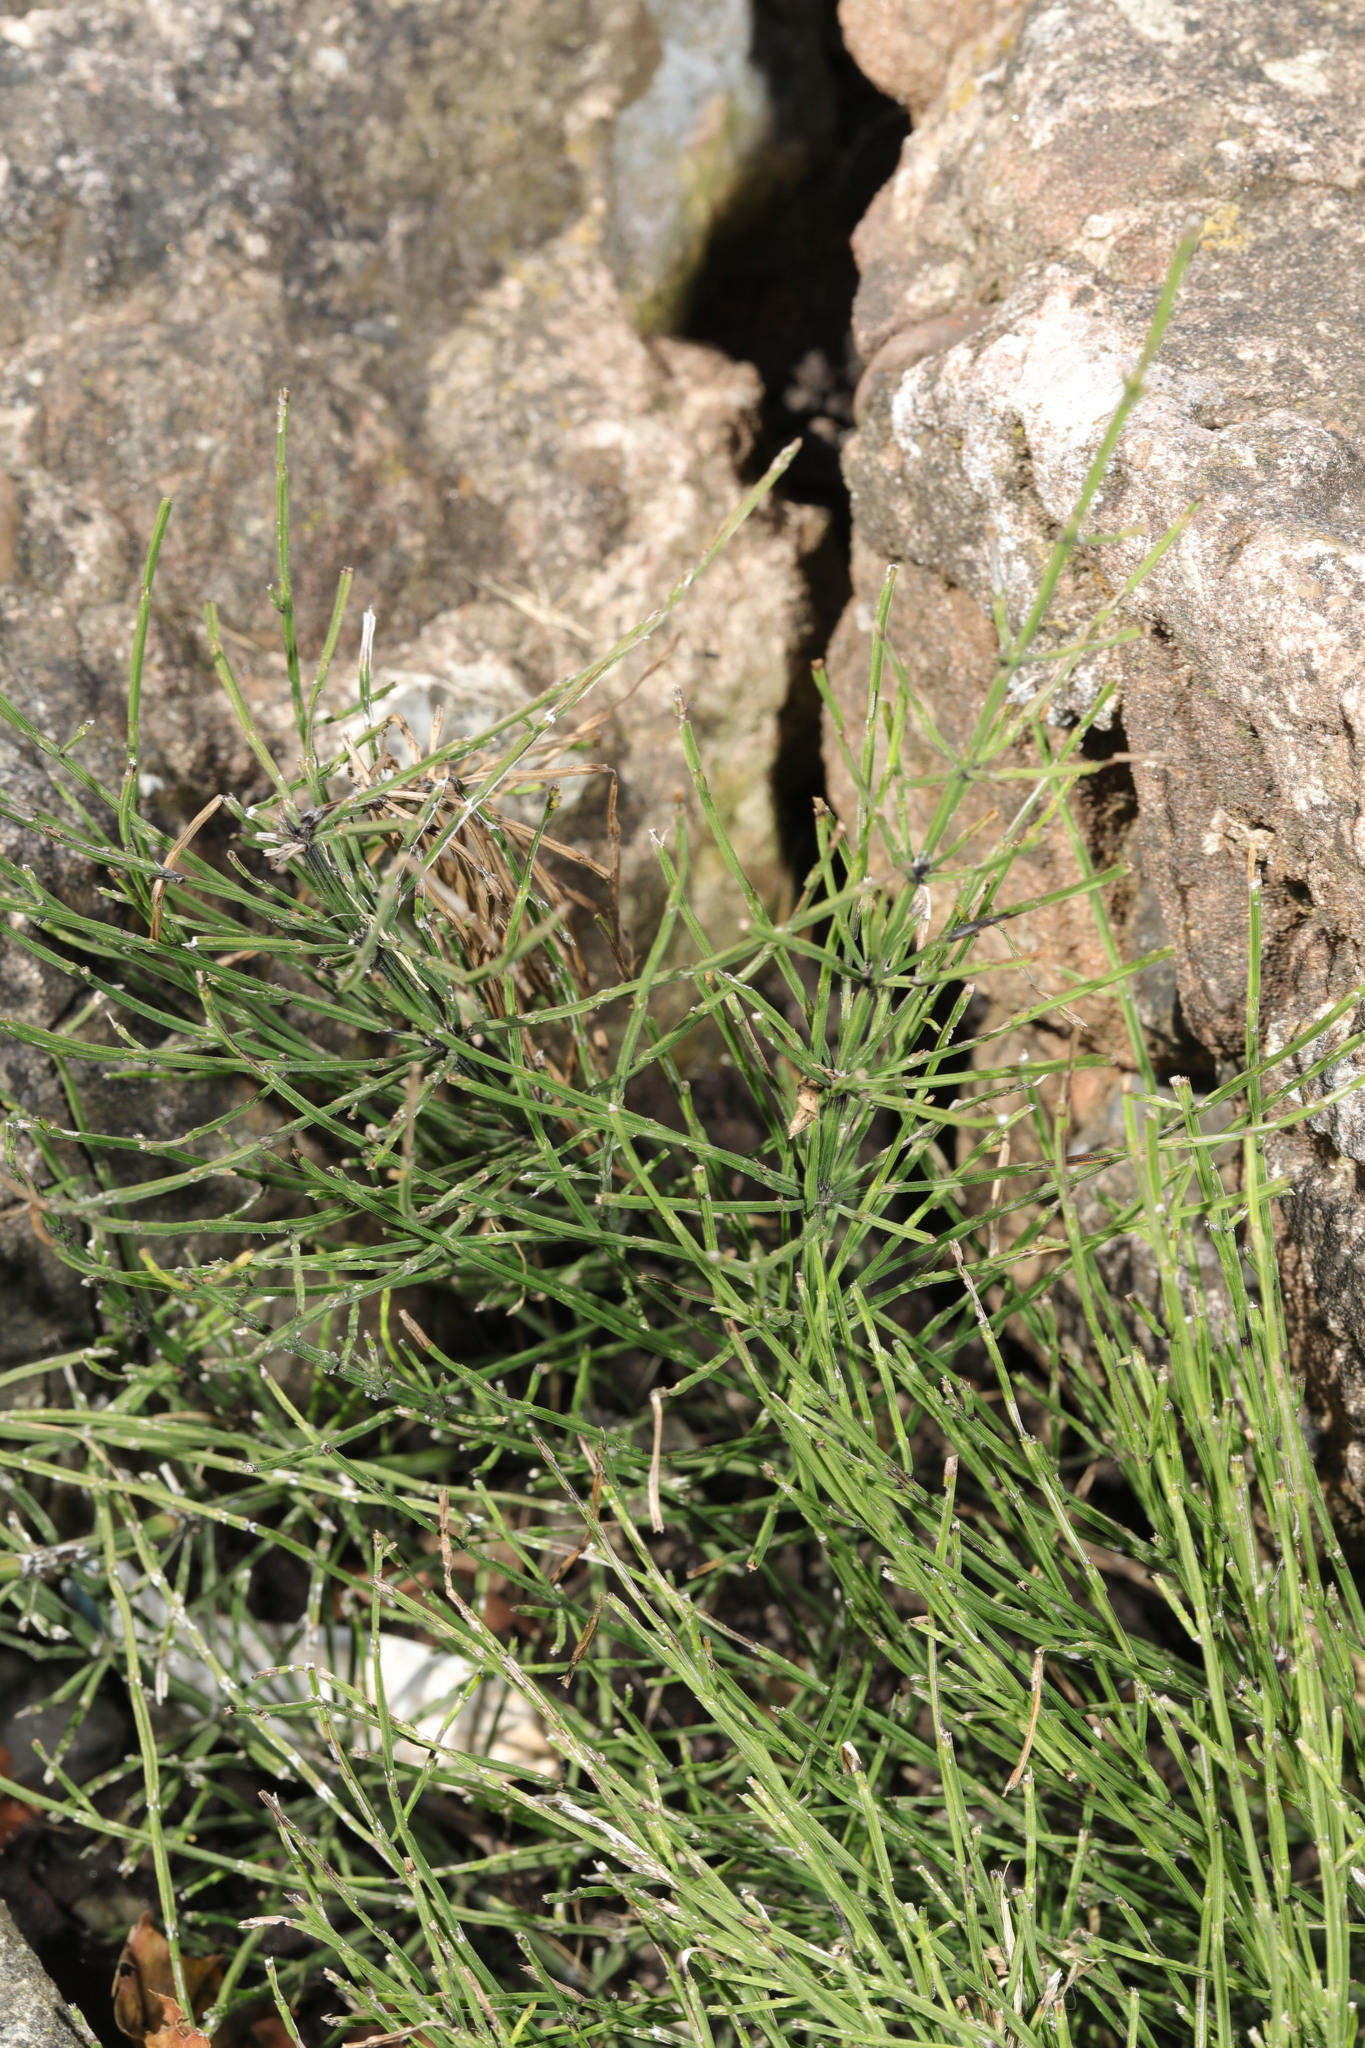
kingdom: Plantae
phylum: Tracheophyta
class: Polypodiopsida
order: Equisetales
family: Equisetaceae
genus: Equisetum
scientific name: Equisetum arvense
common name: Field horsetail
